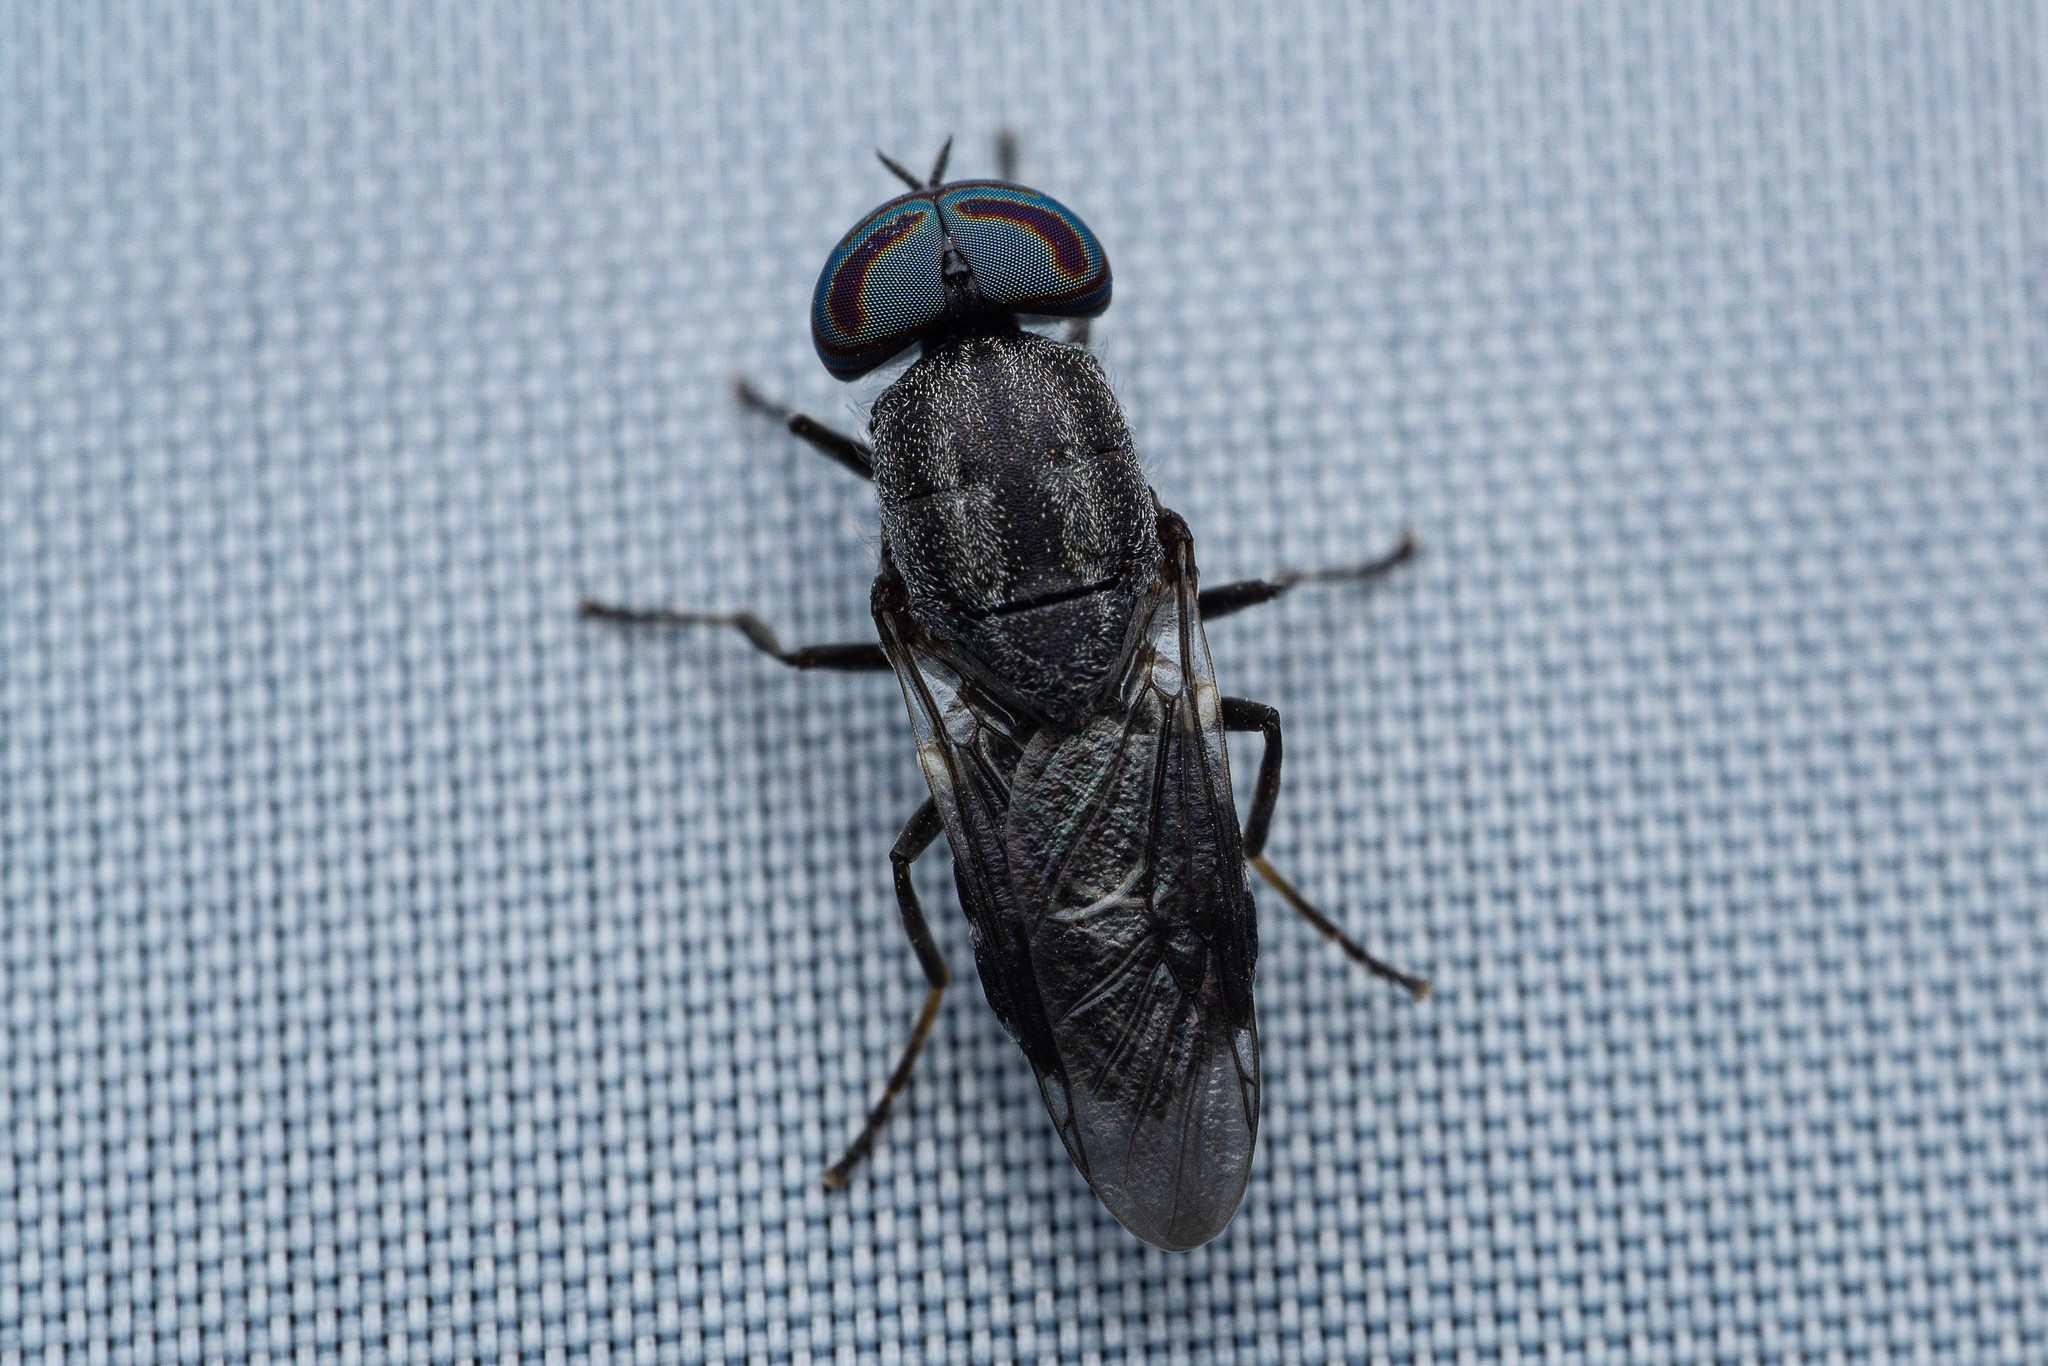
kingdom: Animalia
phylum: Arthropoda
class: Insecta
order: Diptera
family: Stratiomyidae
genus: Dieuryneura
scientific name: Dieuryneura stigma
